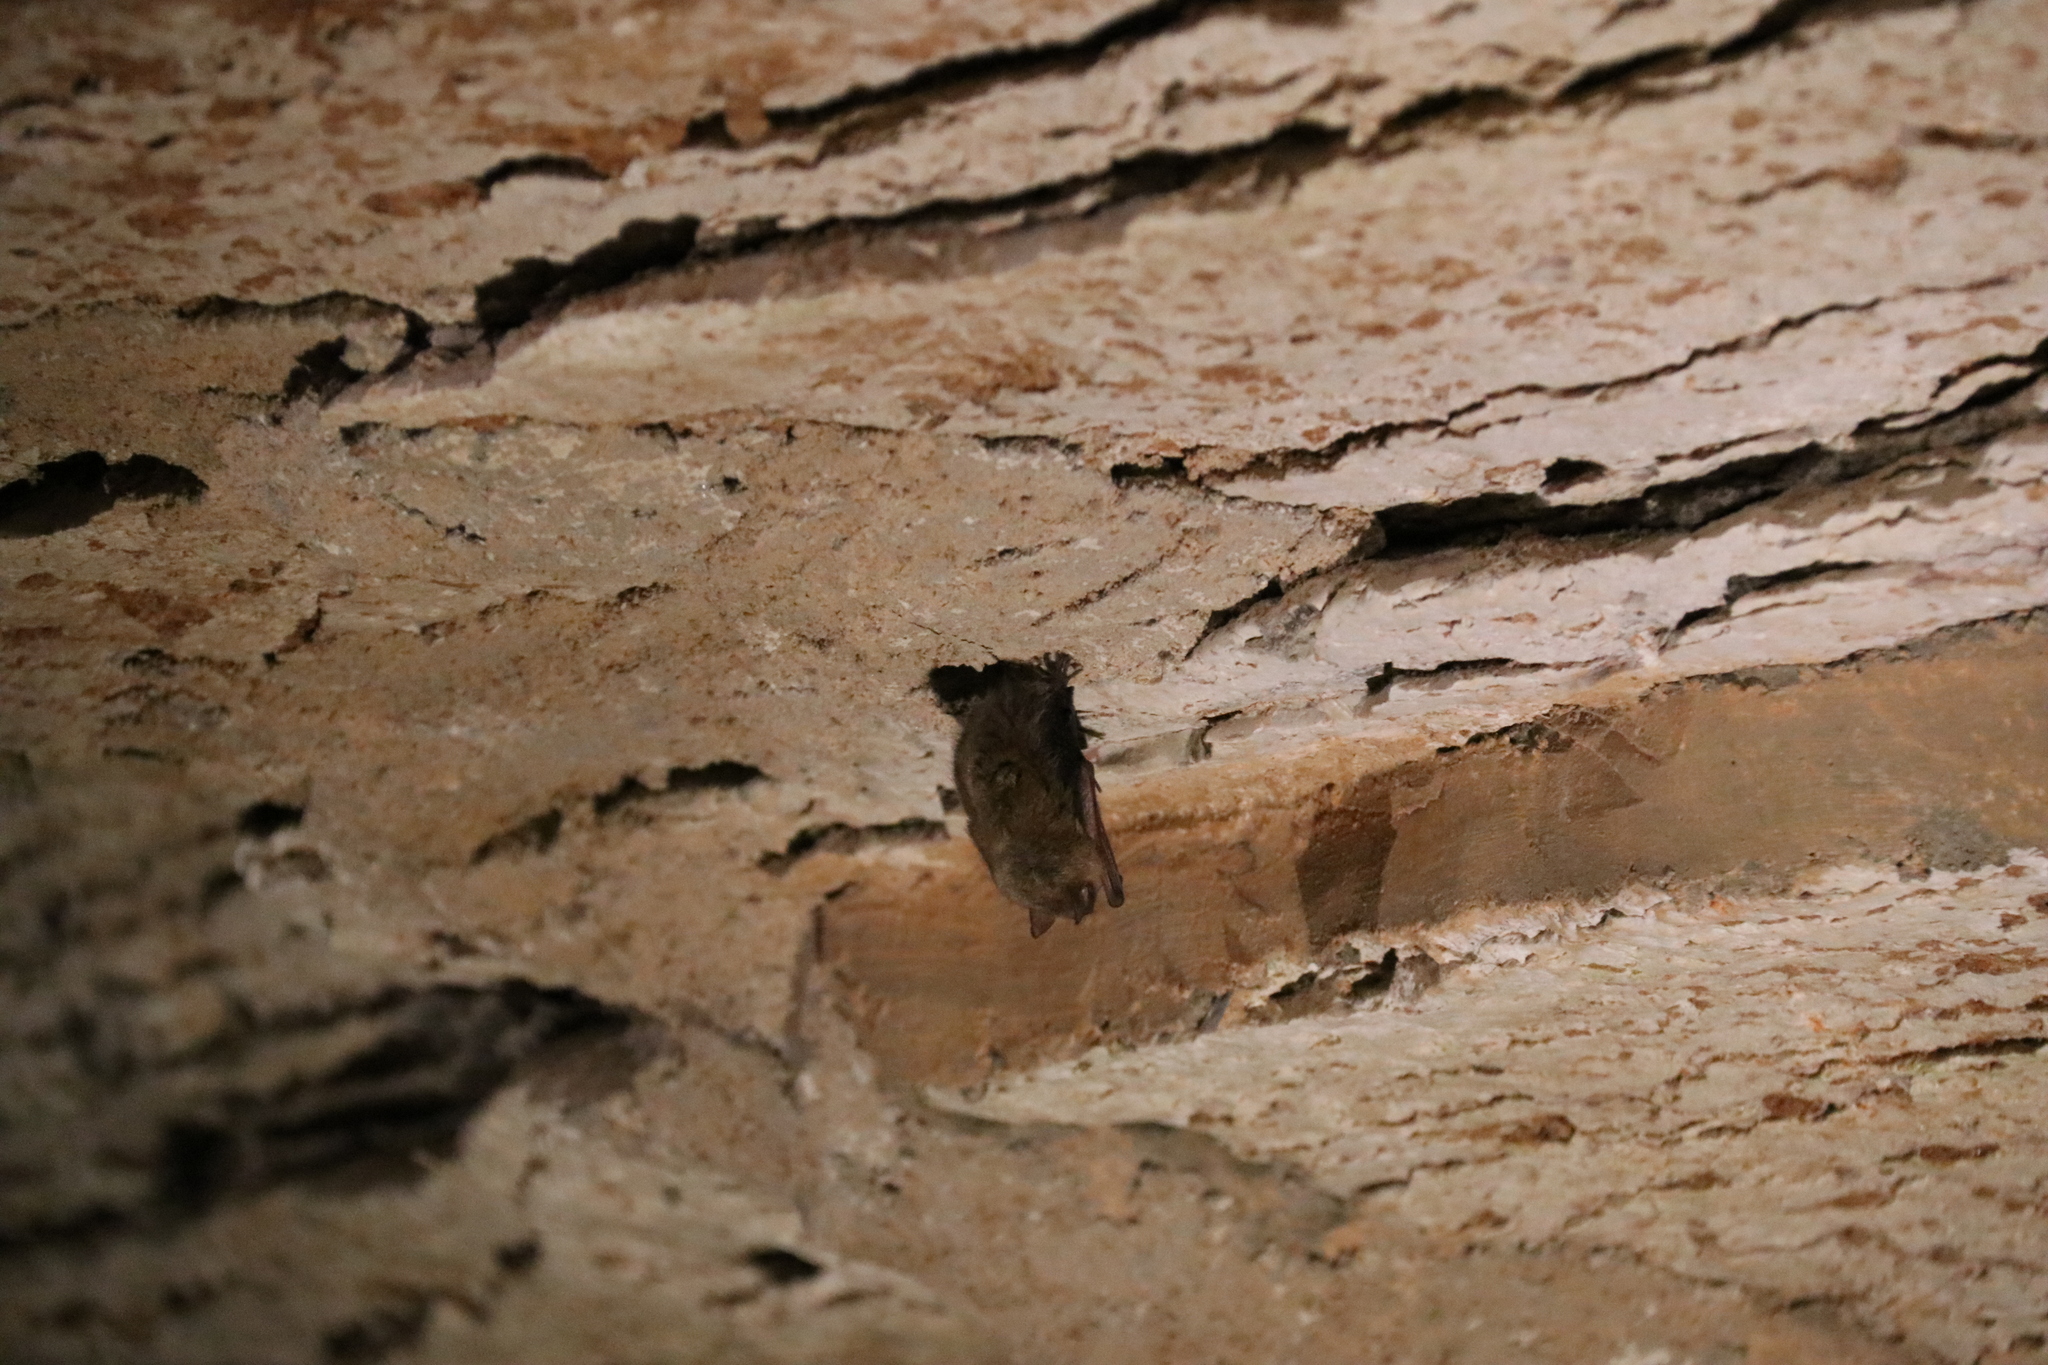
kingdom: Animalia
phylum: Chordata
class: Mammalia
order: Chiroptera
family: Vespertilionidae
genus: Perimyotis
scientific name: Perimyotis subflavus
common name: Eastern pipistrelle
